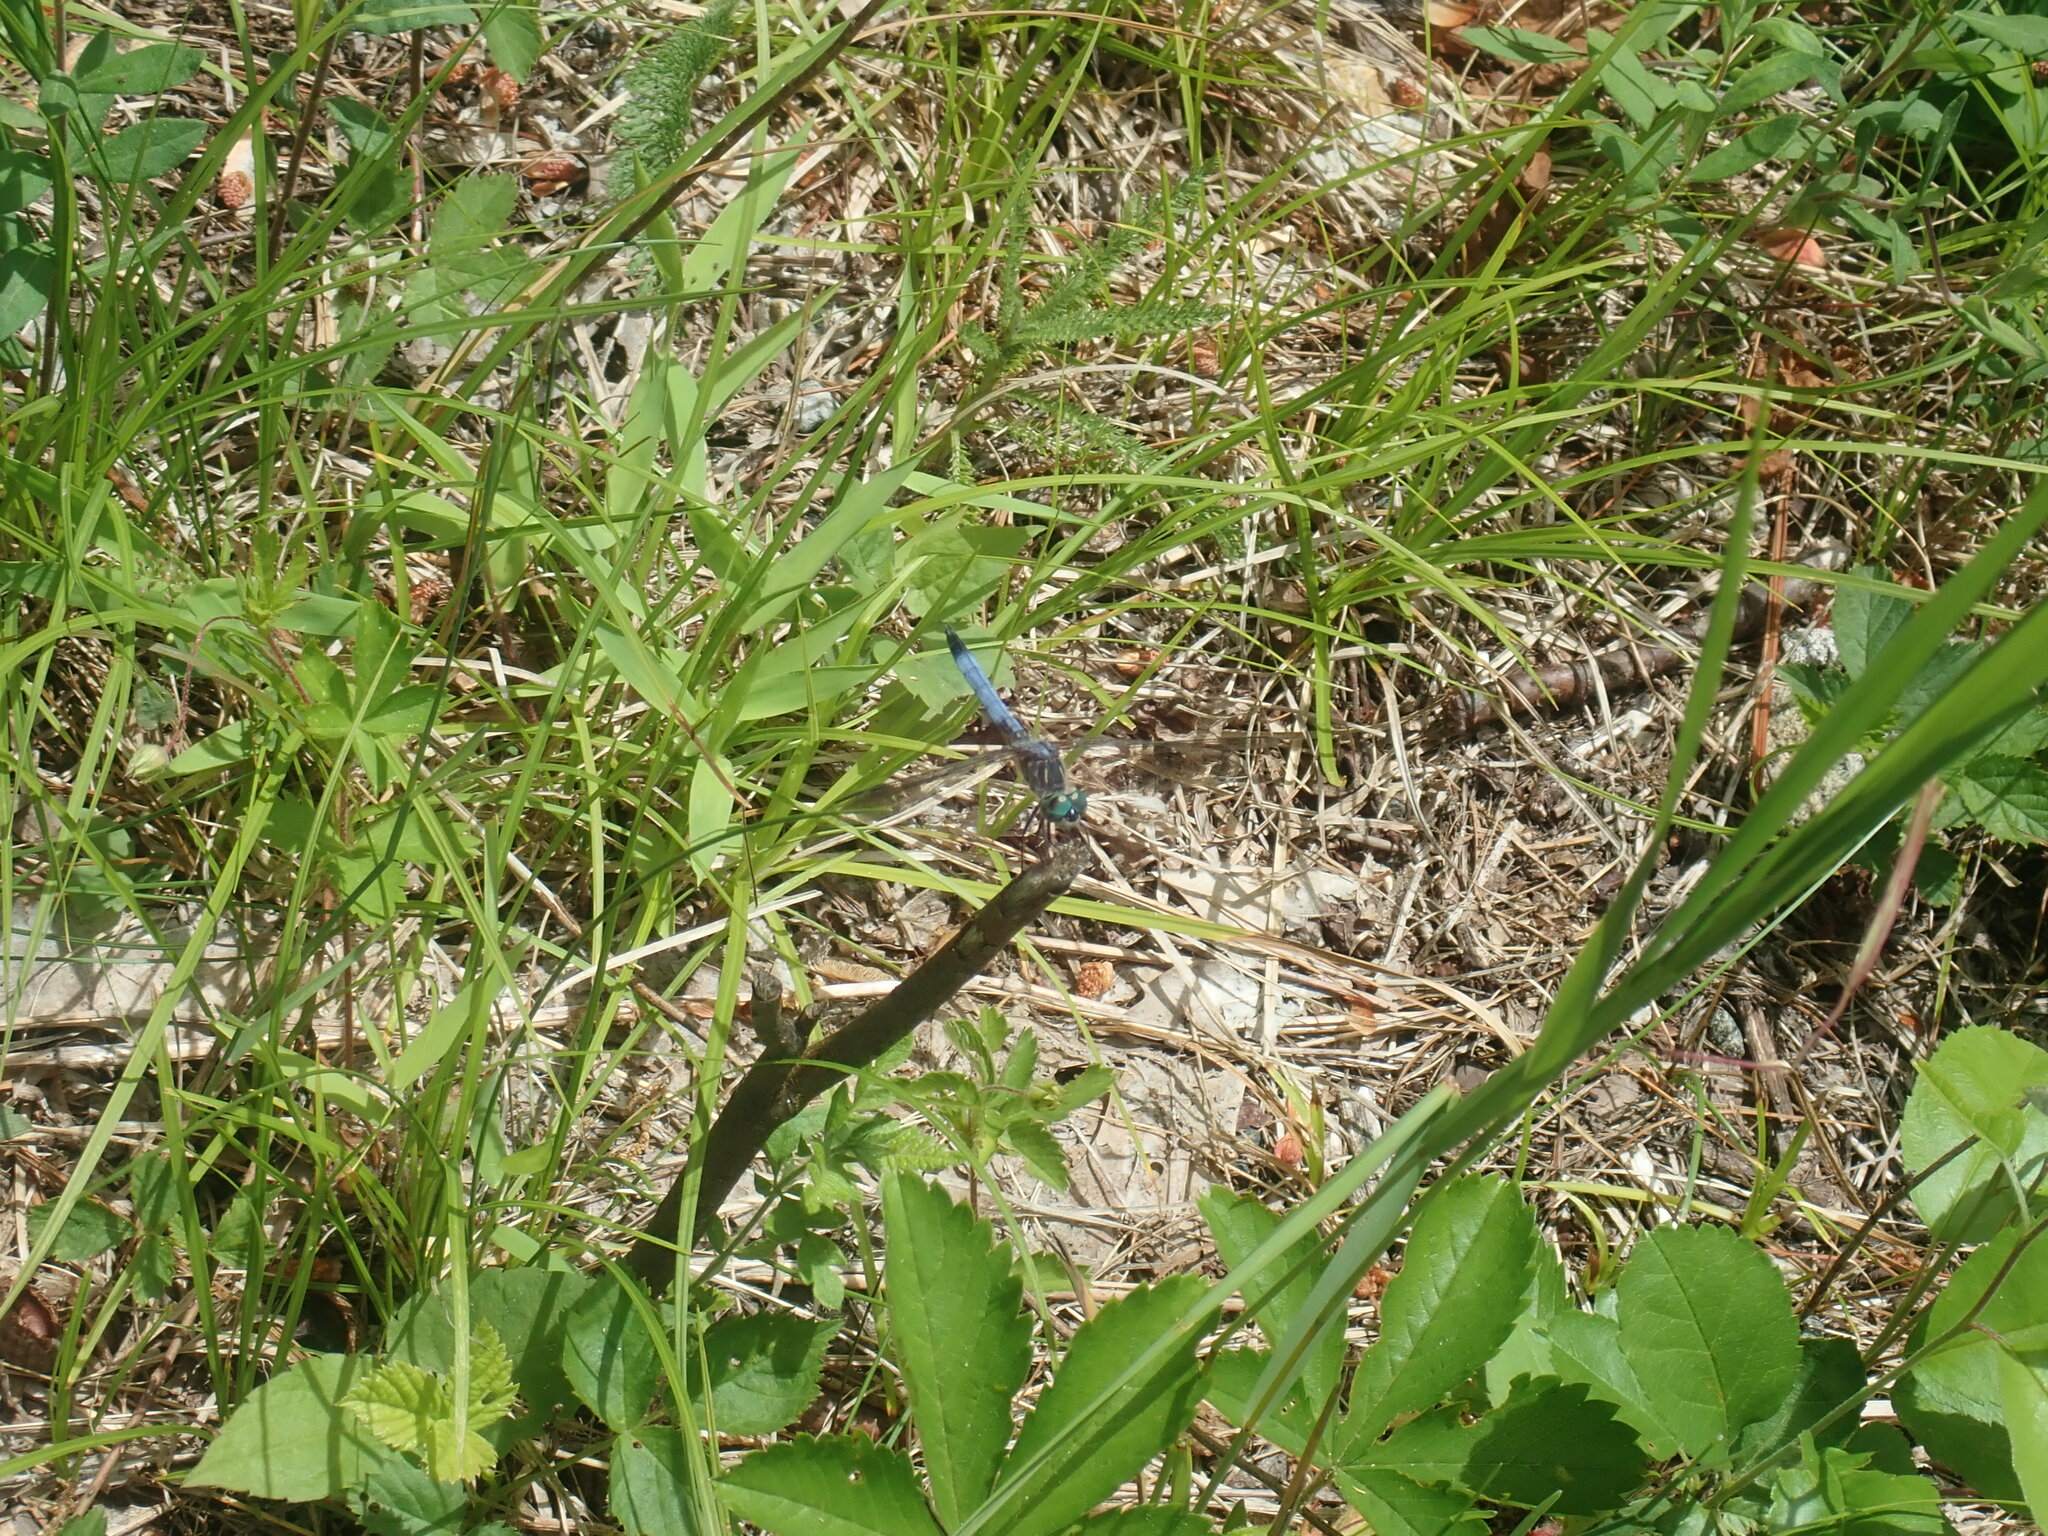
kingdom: Animalia
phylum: Arthropoda
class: Insecta
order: Odonata
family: Libellulidae
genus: Pachydiplax
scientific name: Pachydiplax longipennis
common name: Blue dasher
